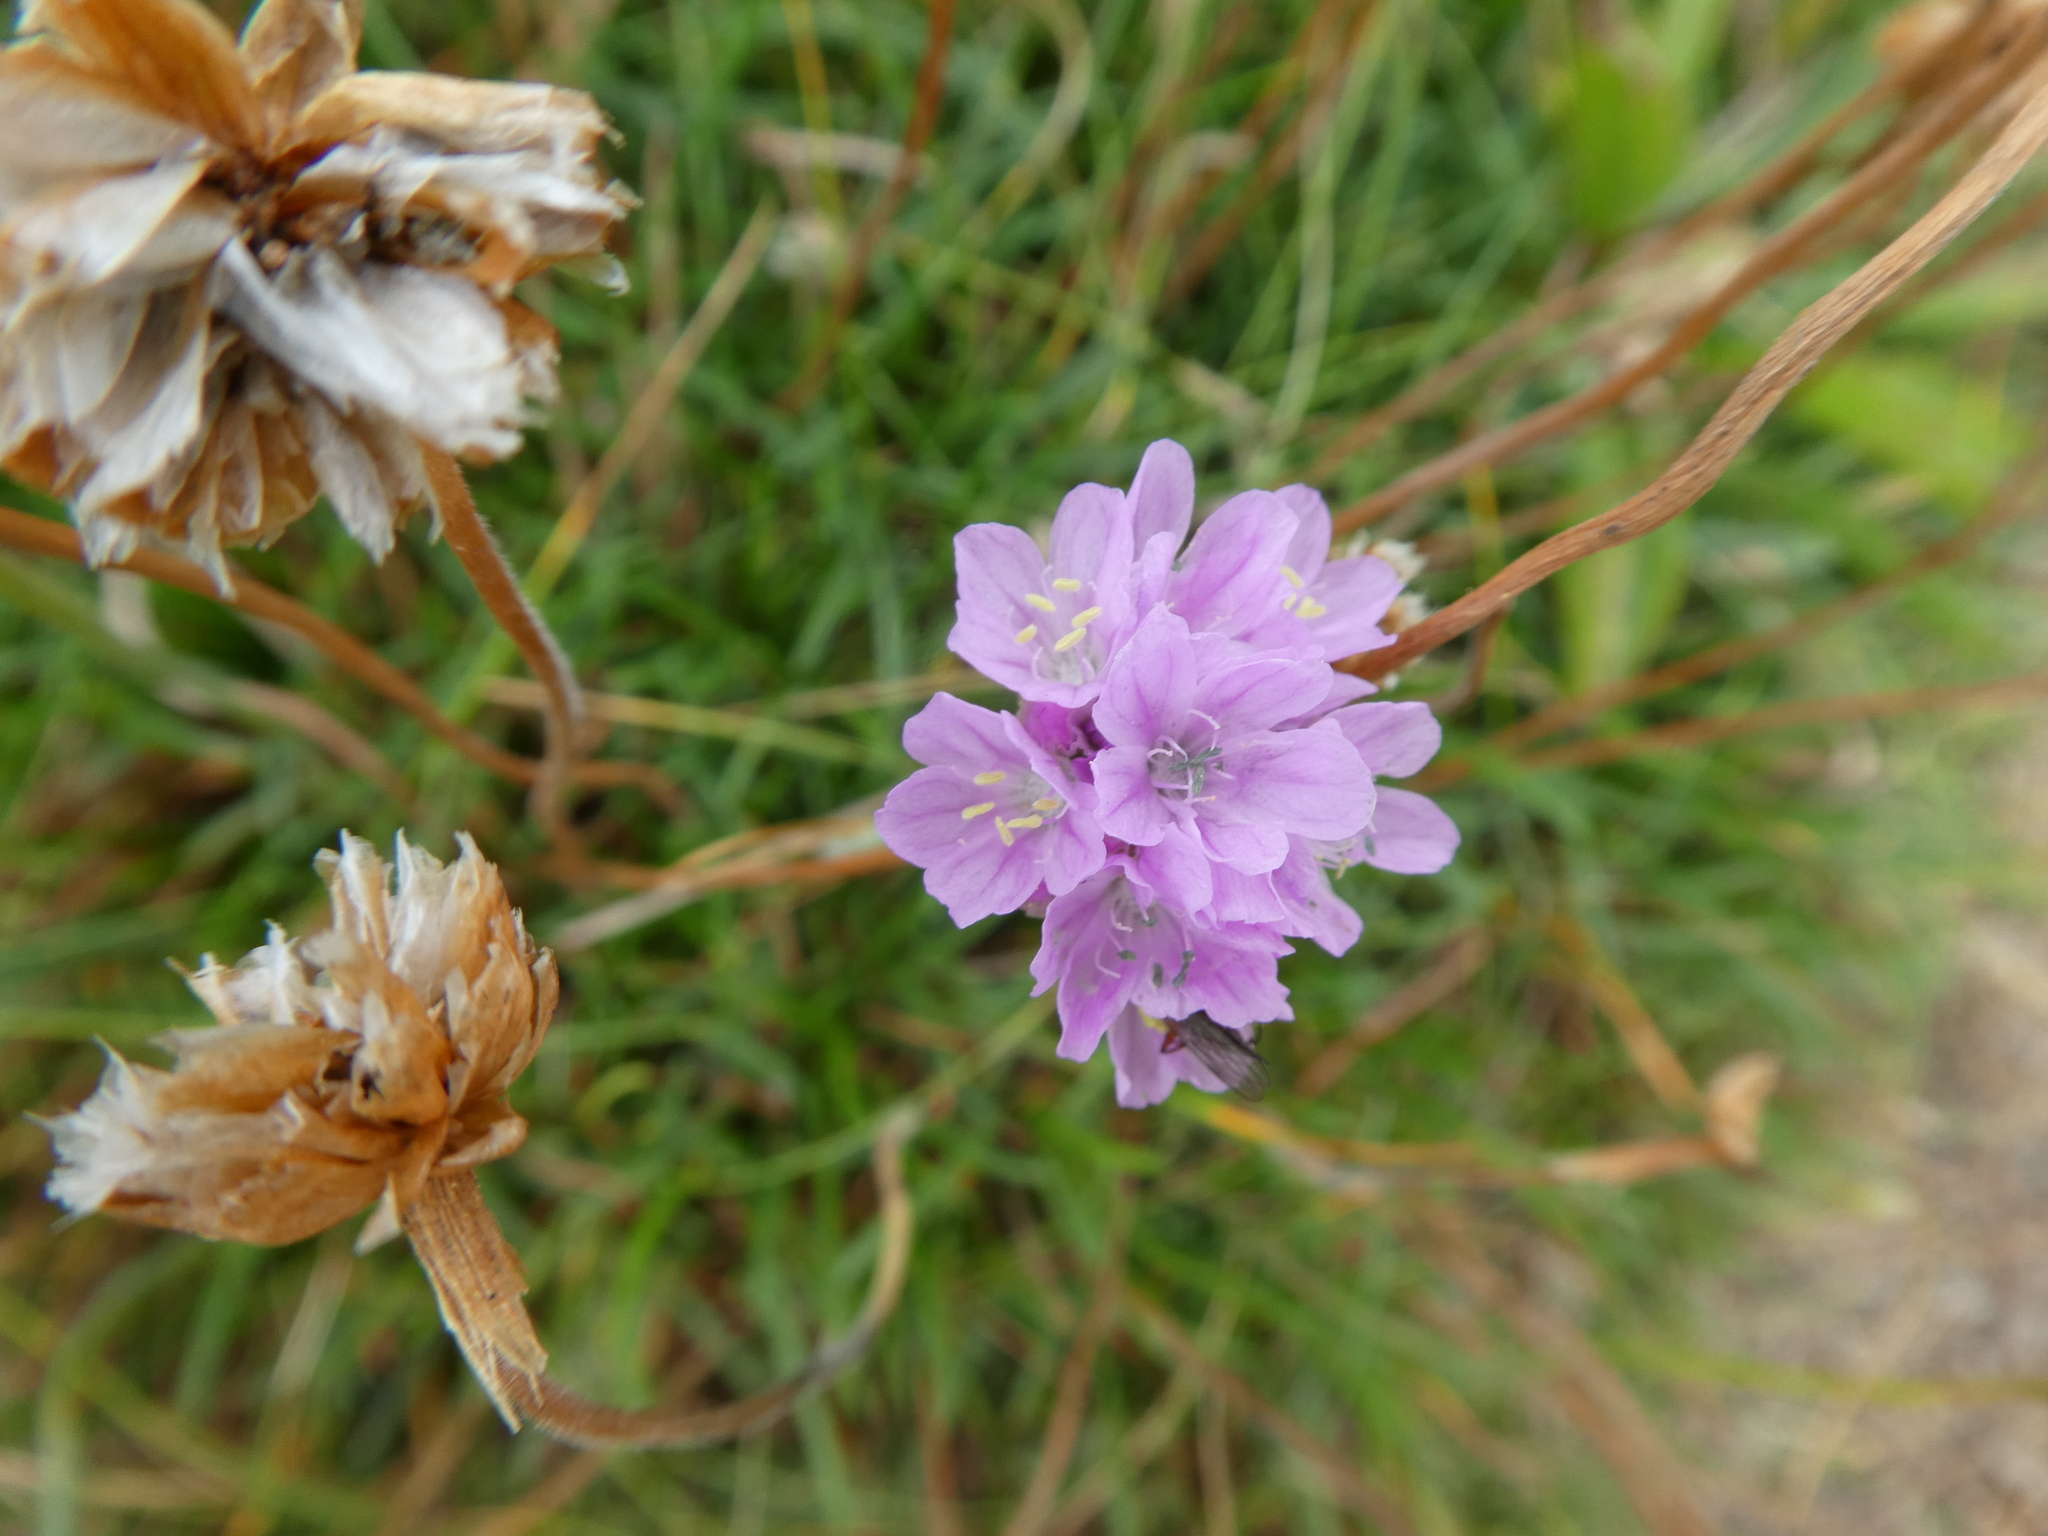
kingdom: Plantae
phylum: Tracheophyta
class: Magnoliopsida
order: Caryophyllales
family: Plumbaginaceae
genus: Armeria
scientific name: Armeria maritima
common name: Thrift
